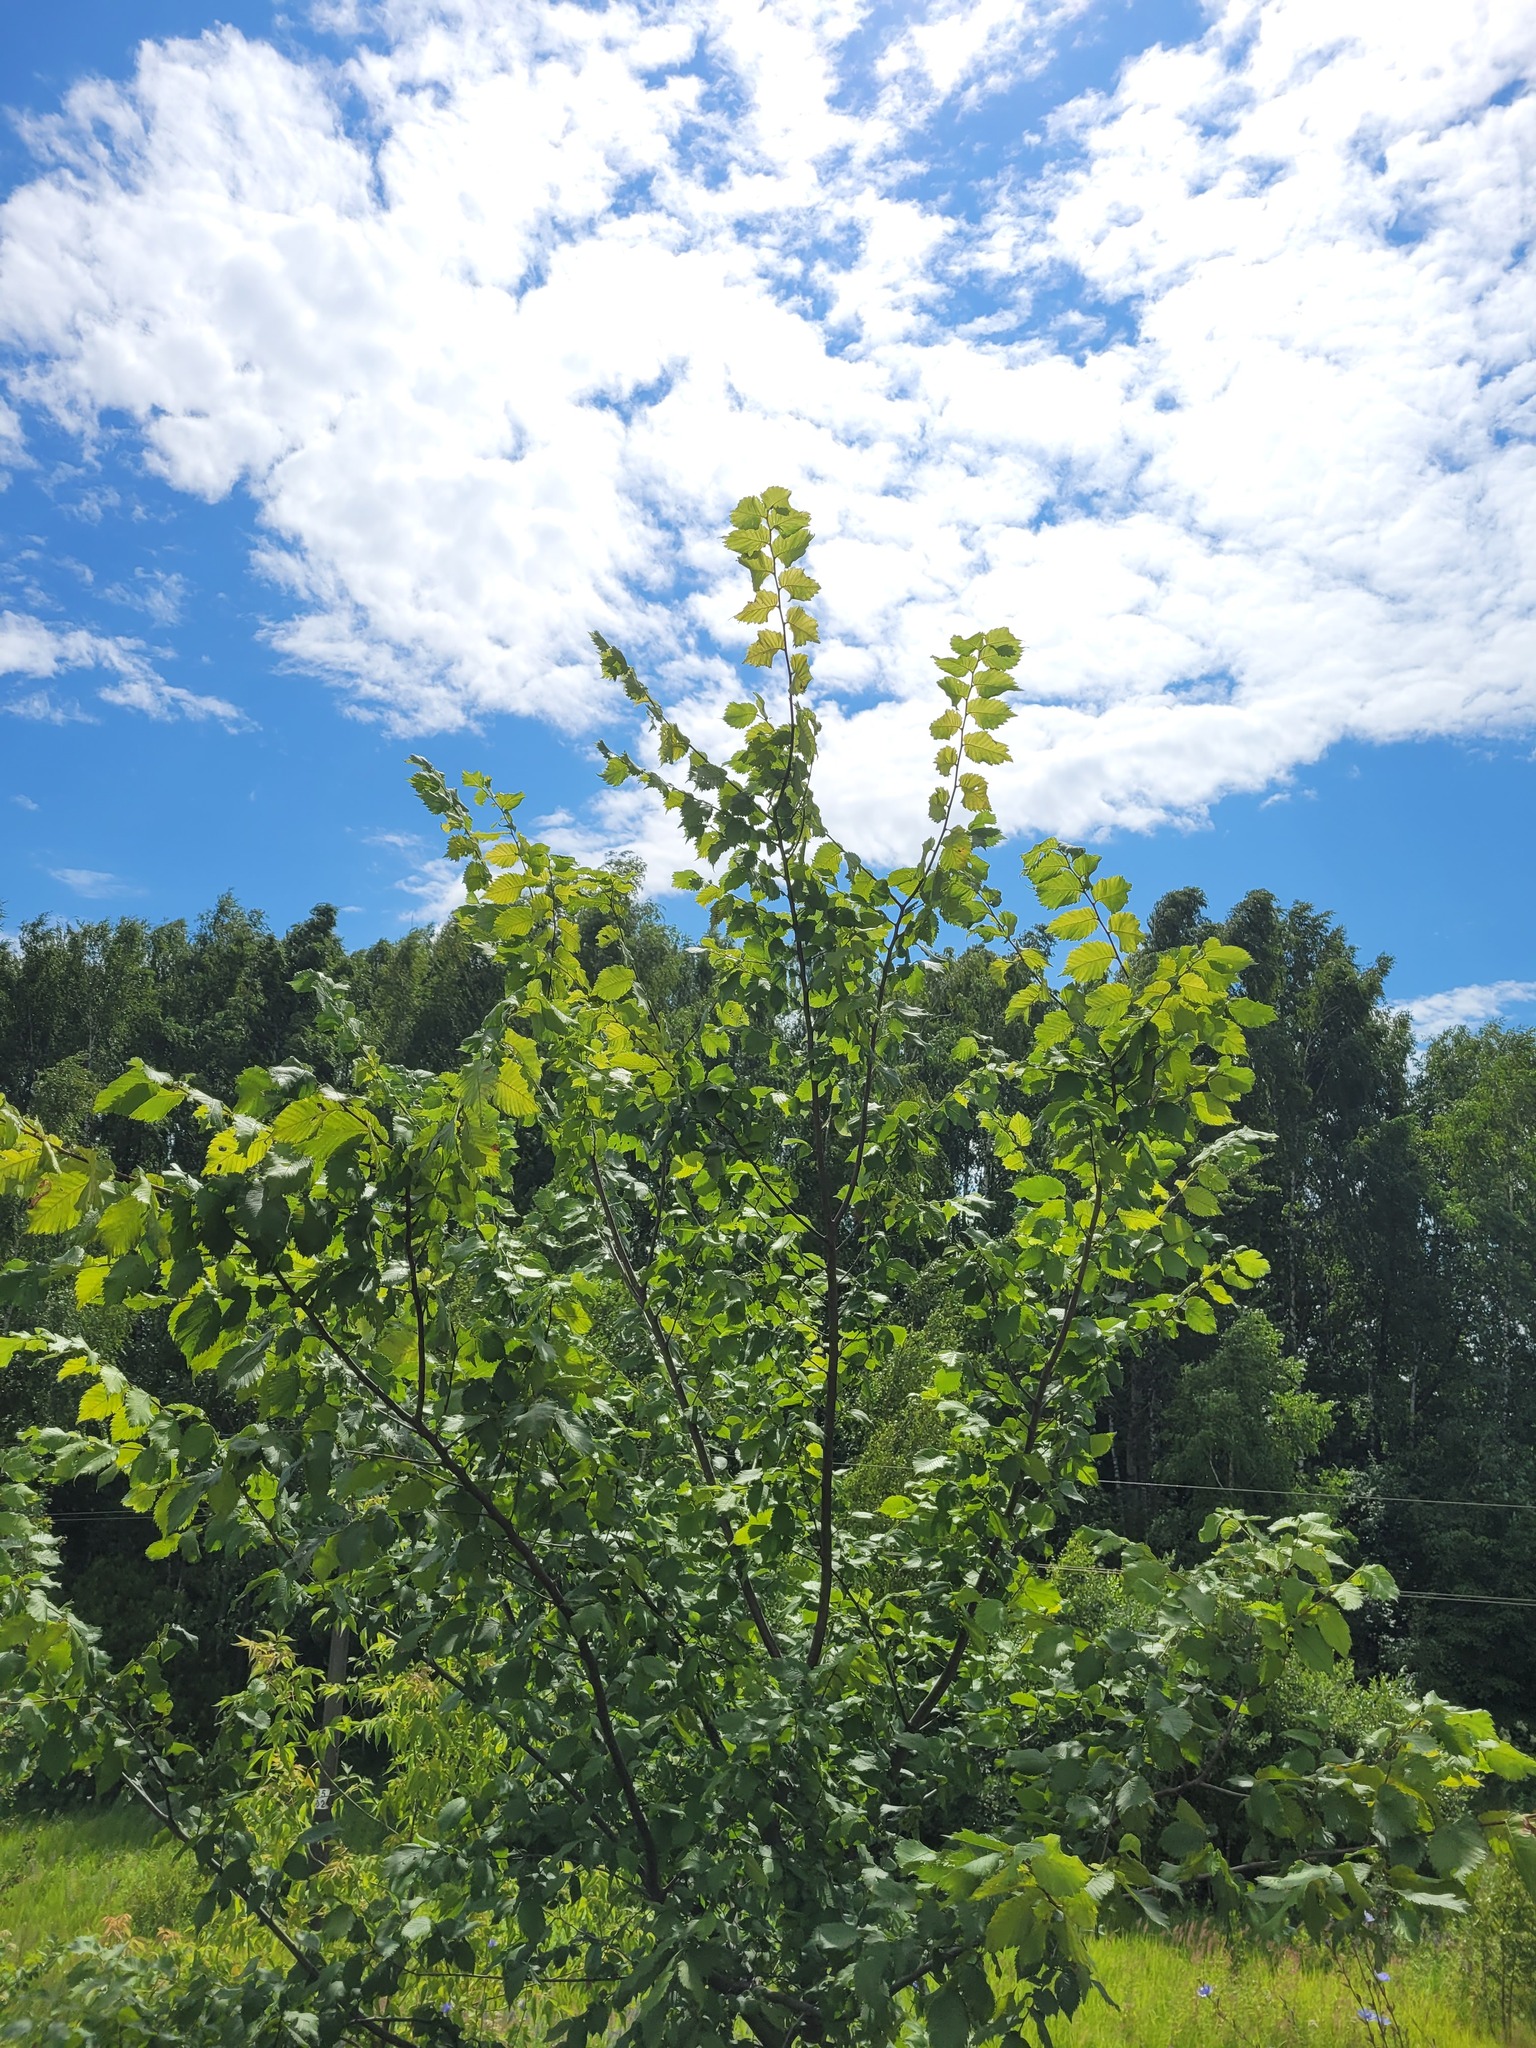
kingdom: Plantae
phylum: Tracheophyta
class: Magnoliopsida
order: Rosales
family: Ulmaceae
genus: Ulmus
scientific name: Ulmus laevis
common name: European white-elm
